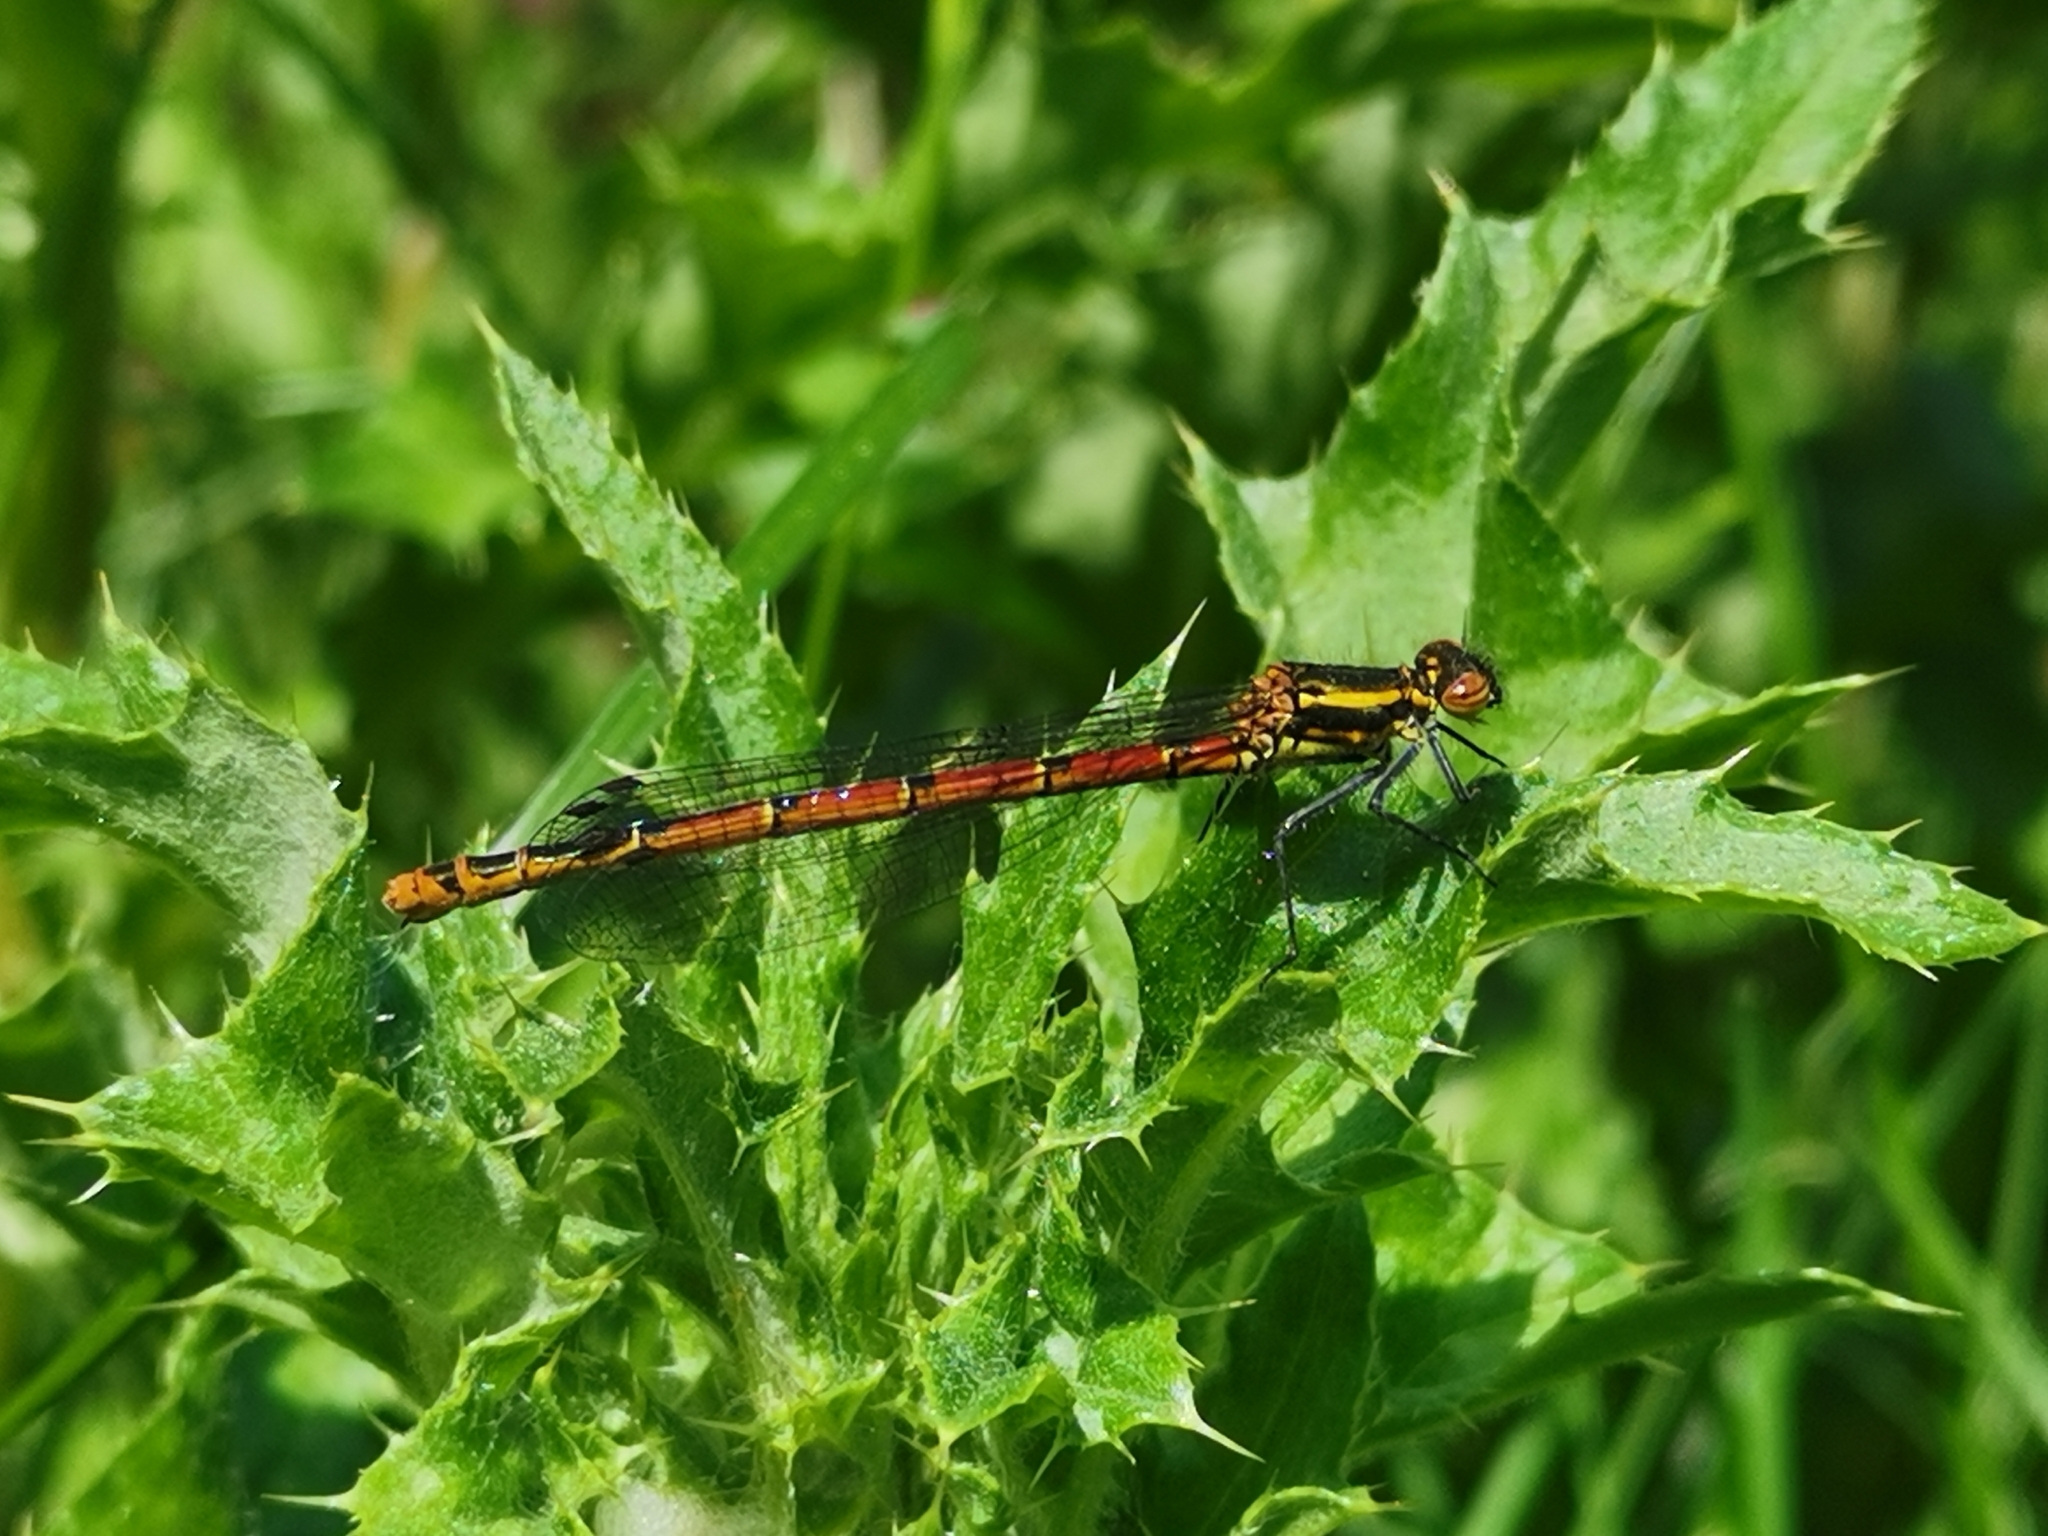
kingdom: Animalia
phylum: Arthropoda
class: Insecta
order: Odonata
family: Coenagrionidae
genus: Pyrrhosoma
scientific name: Pyrrhosoma nymphula
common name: Large red damsel
